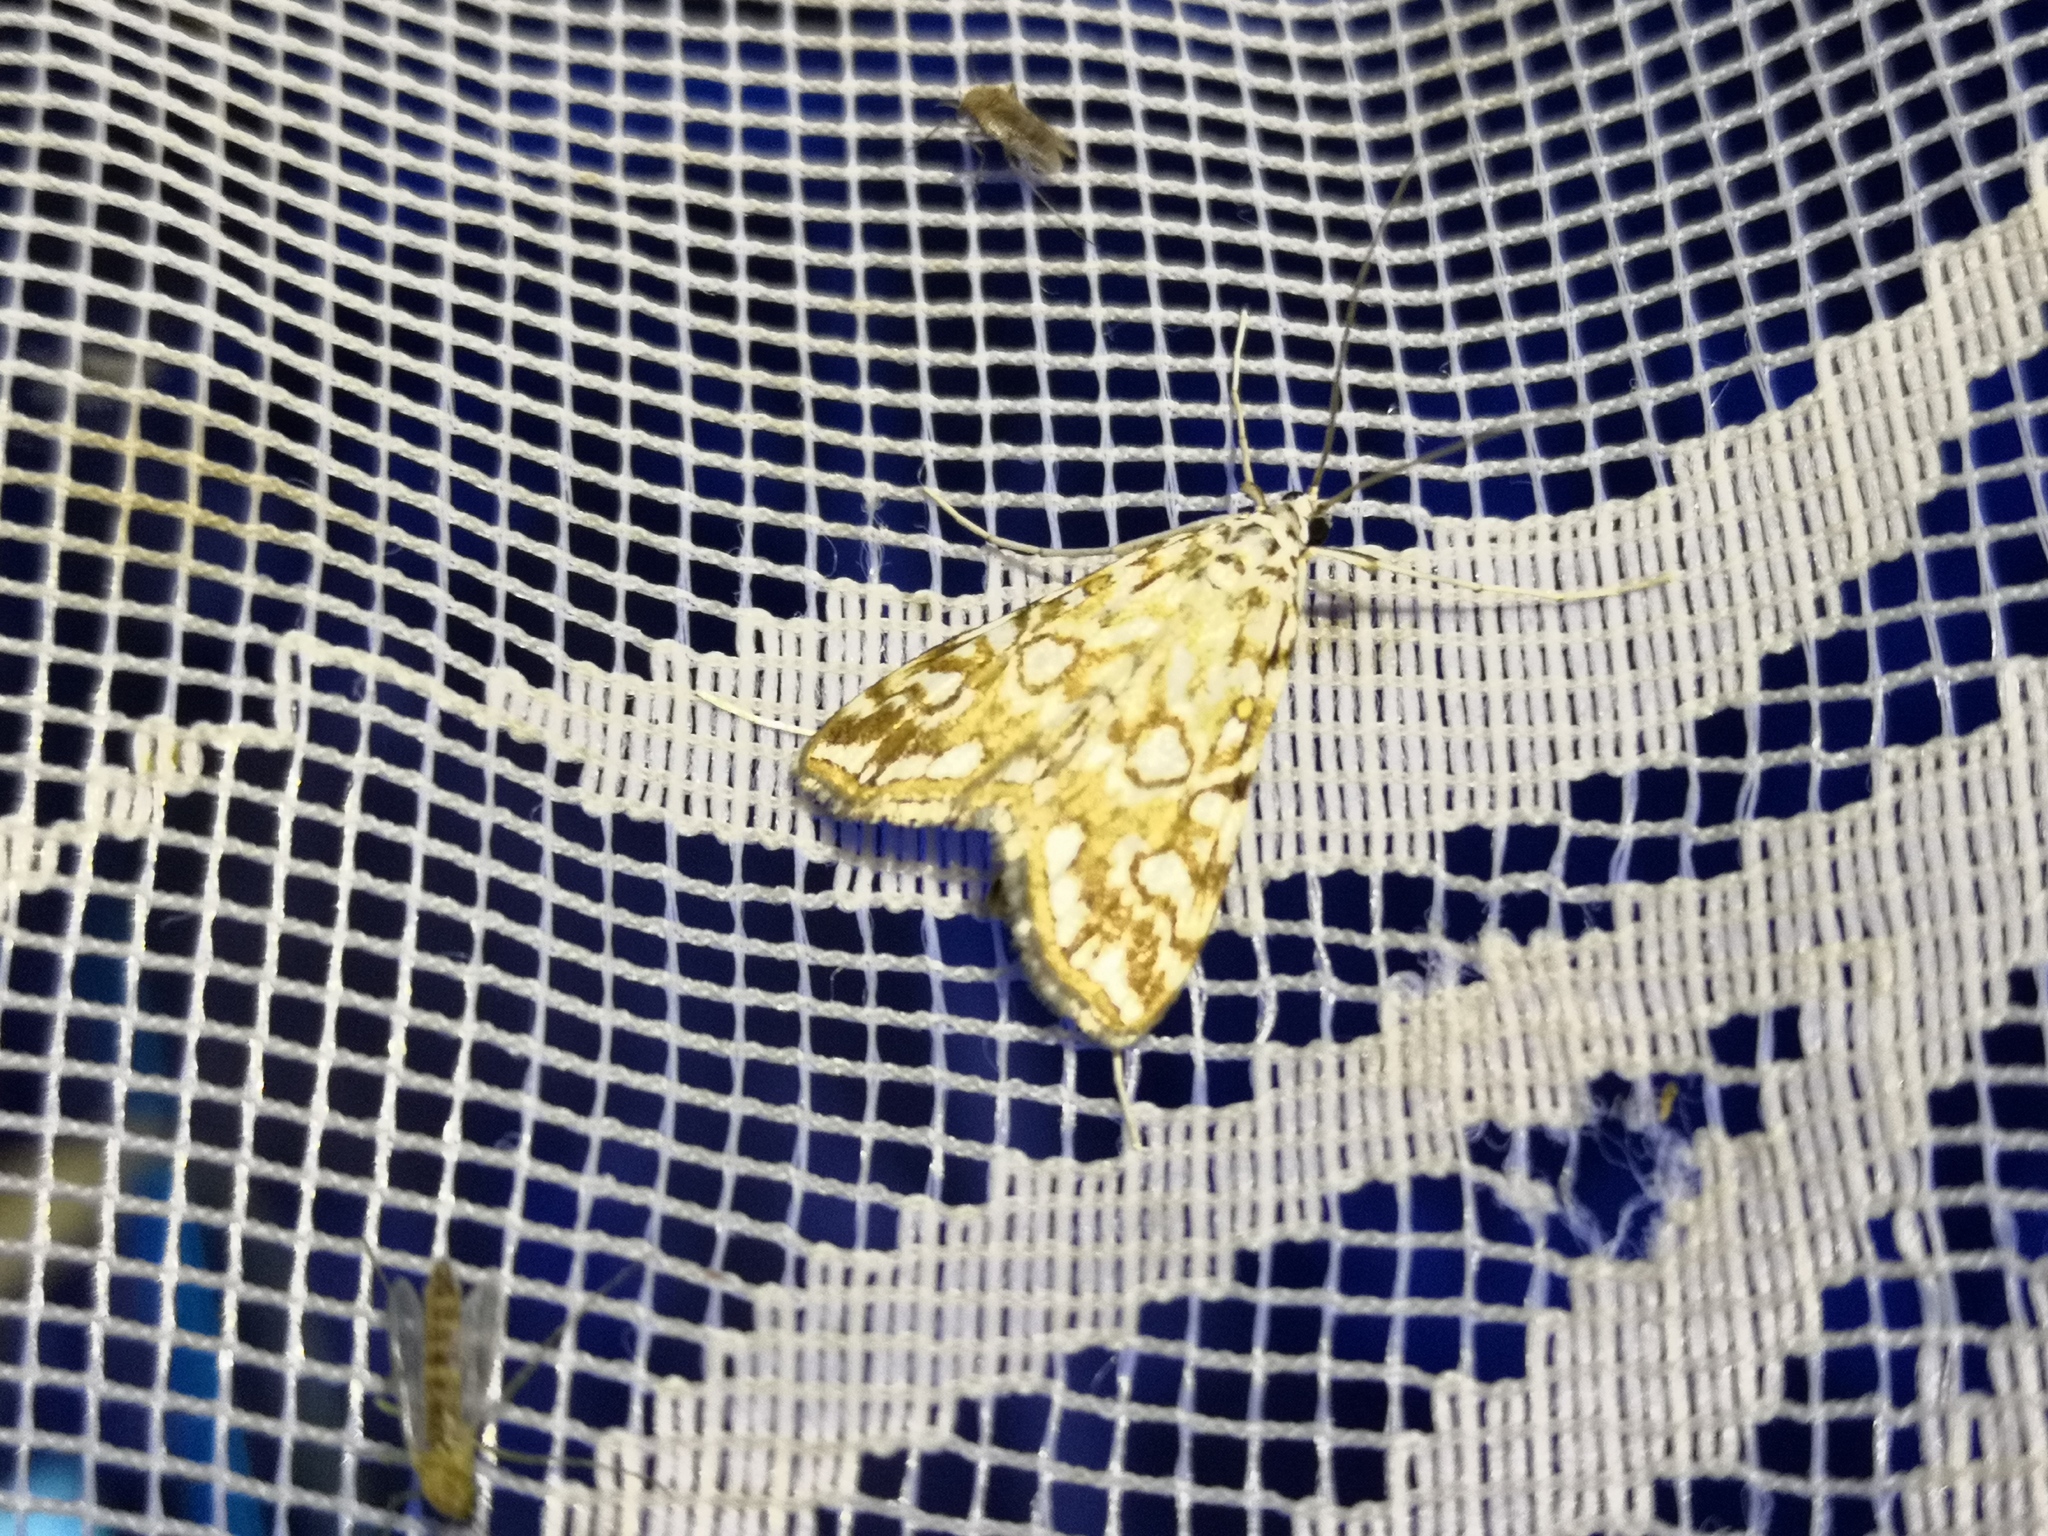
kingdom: Animalia
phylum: Arthropoda
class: Insecta
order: Lepidoptera
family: Crambidae
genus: Elophila
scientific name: Elophila nymphaeata
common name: Brown china-mark
